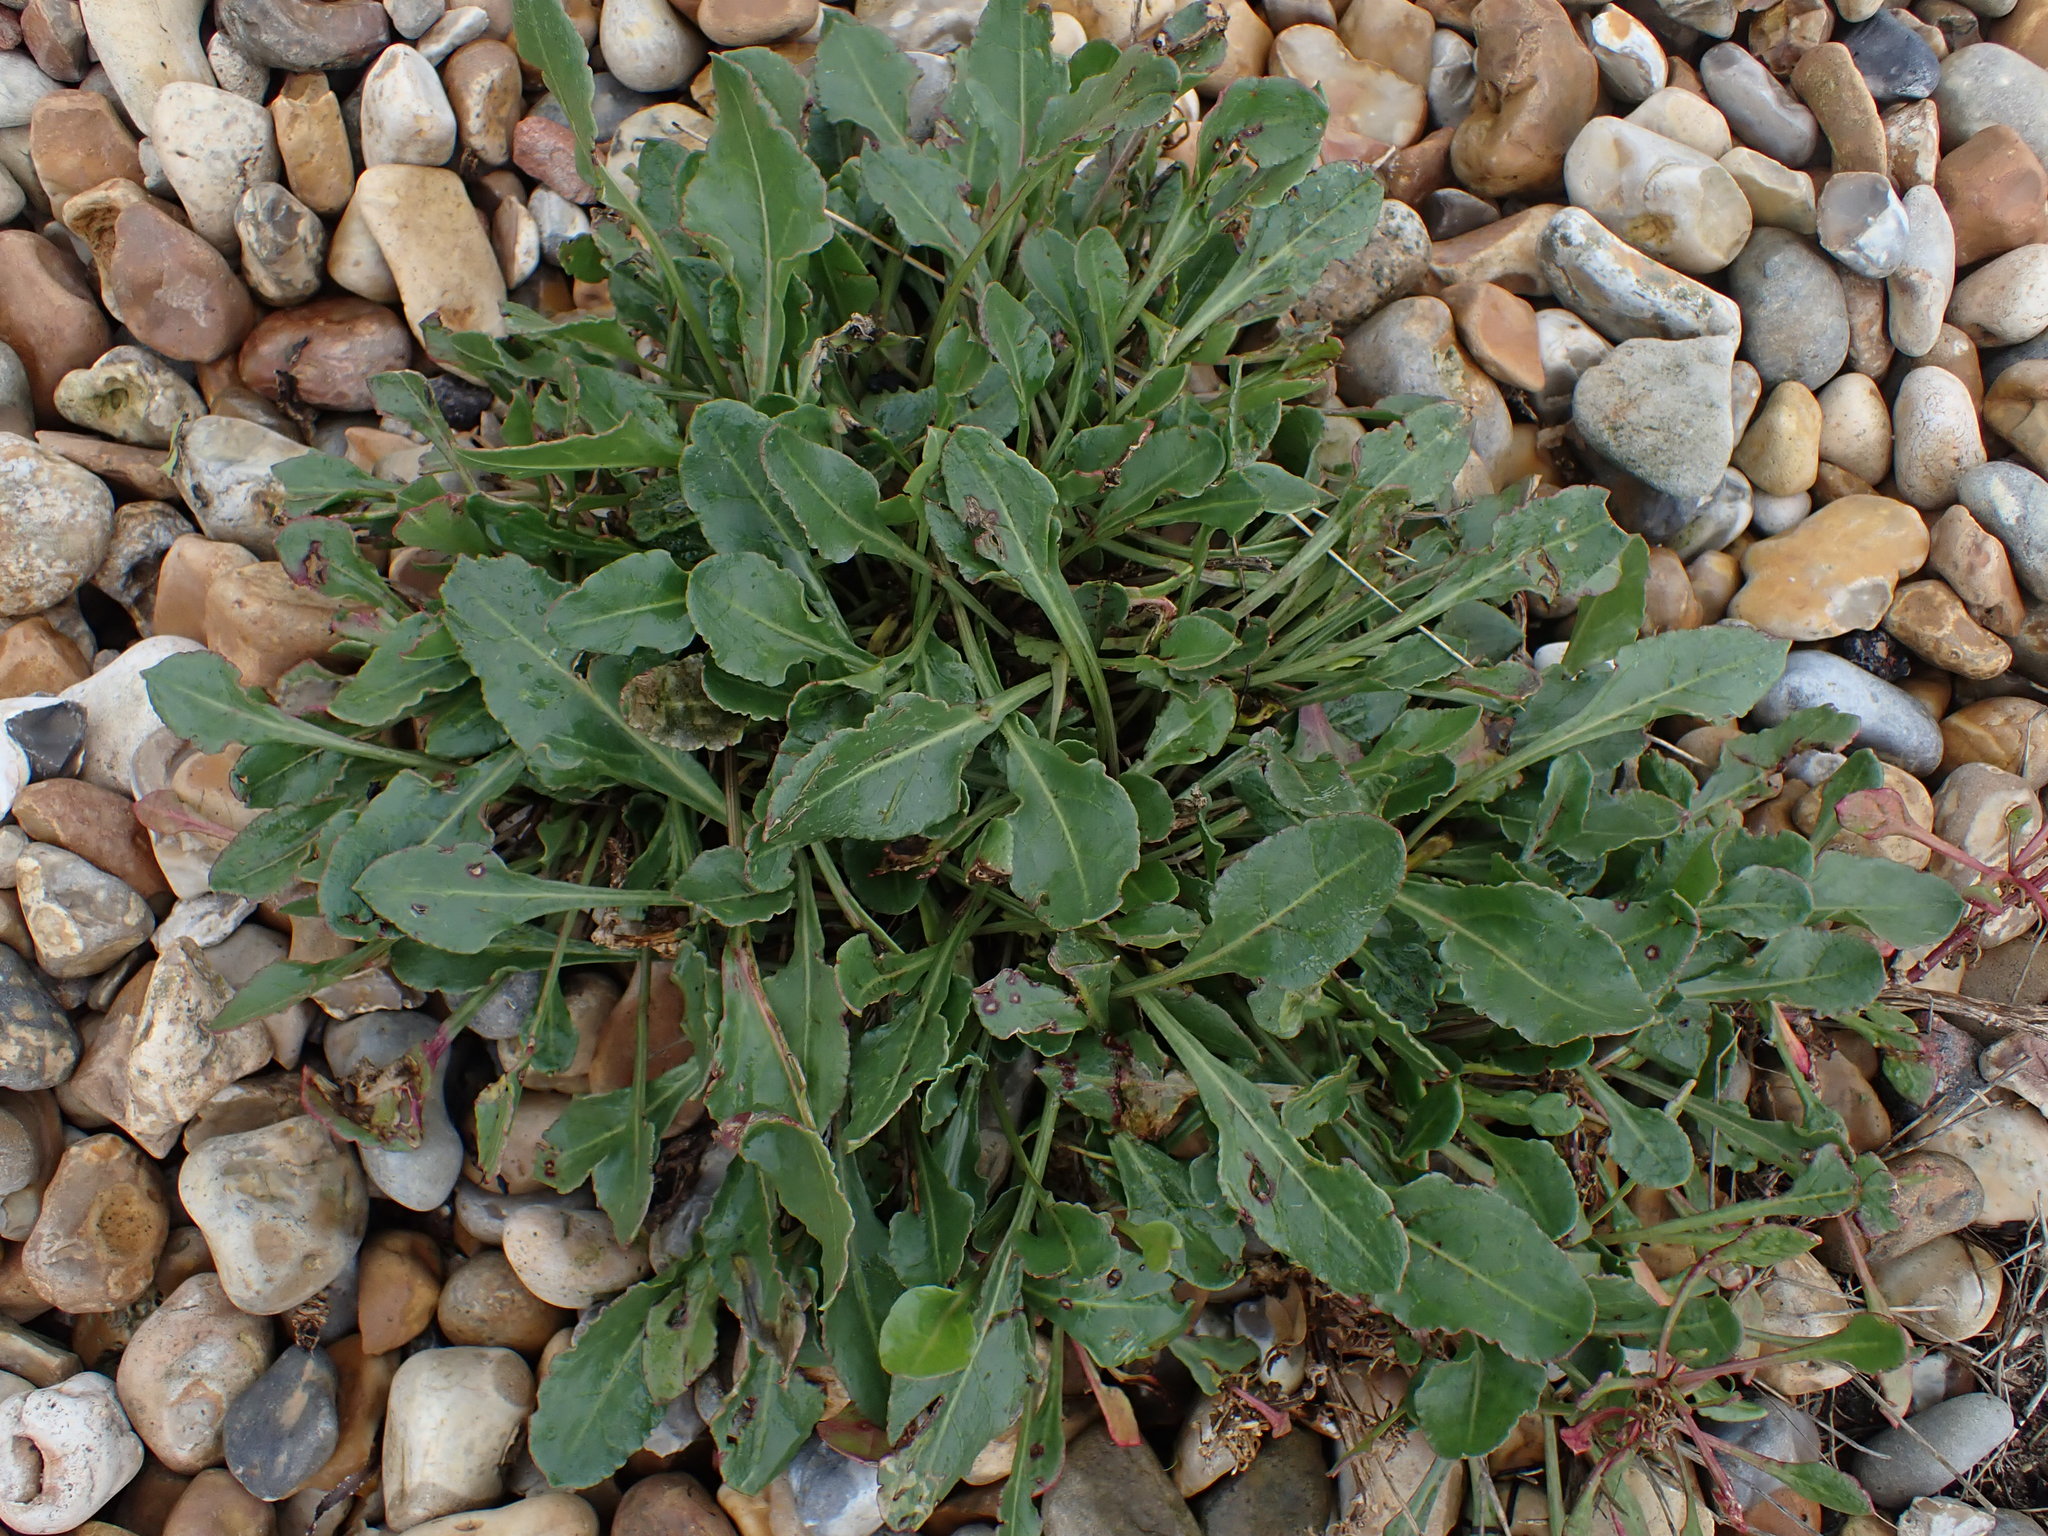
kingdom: Plantae
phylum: Tracheophyta
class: Magnoliopsida
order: Caryophyllales
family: Amaranthaceae
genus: Beta
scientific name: Beta vulgaris
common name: Beet
